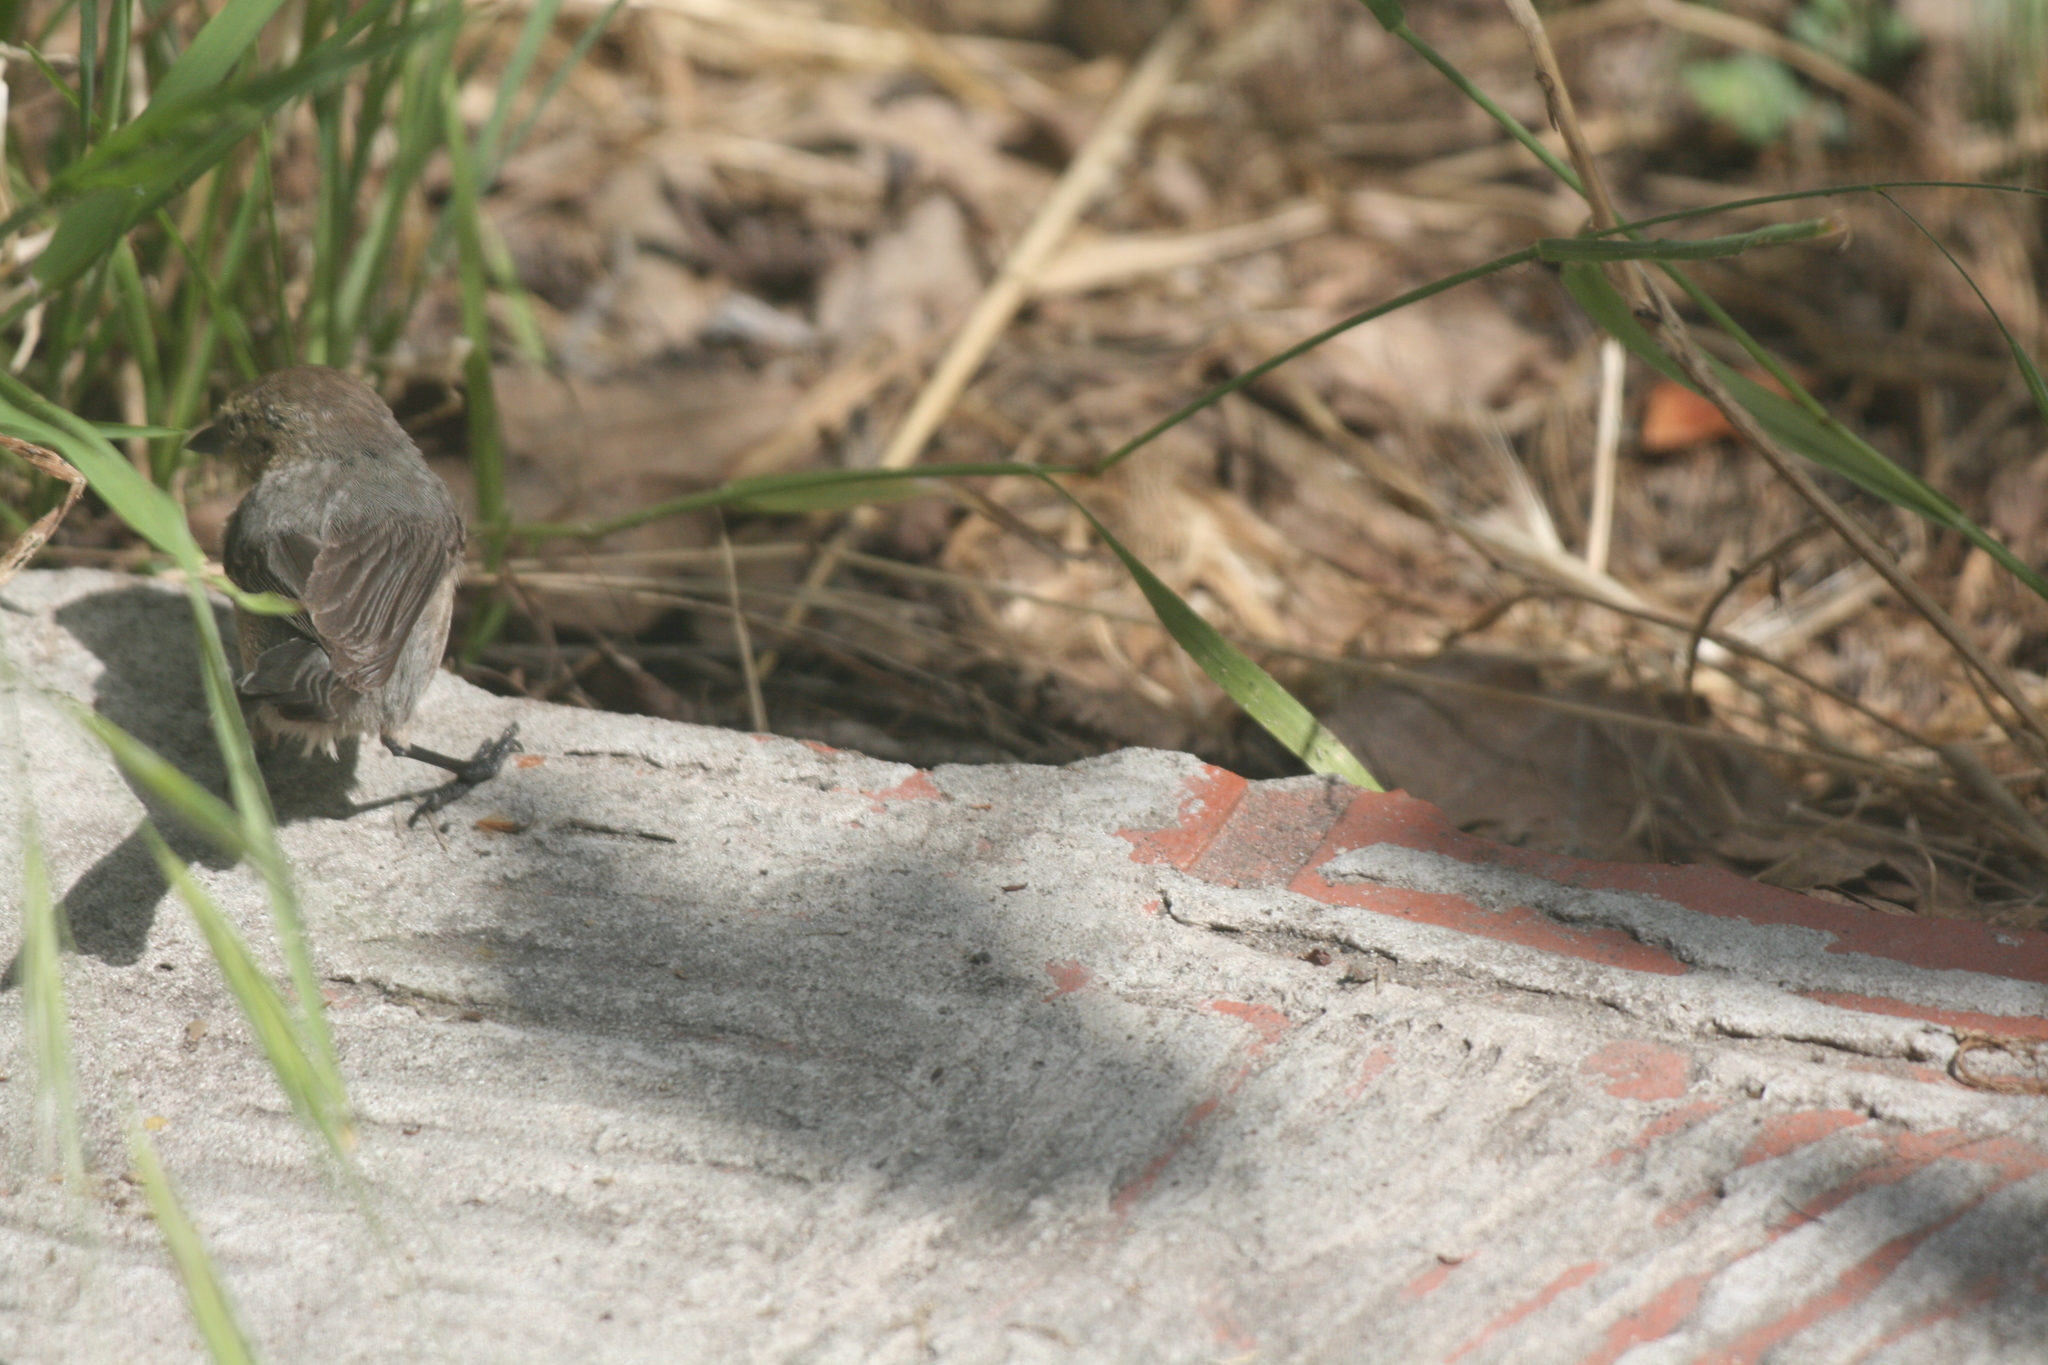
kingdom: Animalia
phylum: Chordata
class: Aves
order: Passeriformes
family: Aegithalidae
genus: Psaltriparus
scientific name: Psaltriparus minimus
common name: American bushtit
